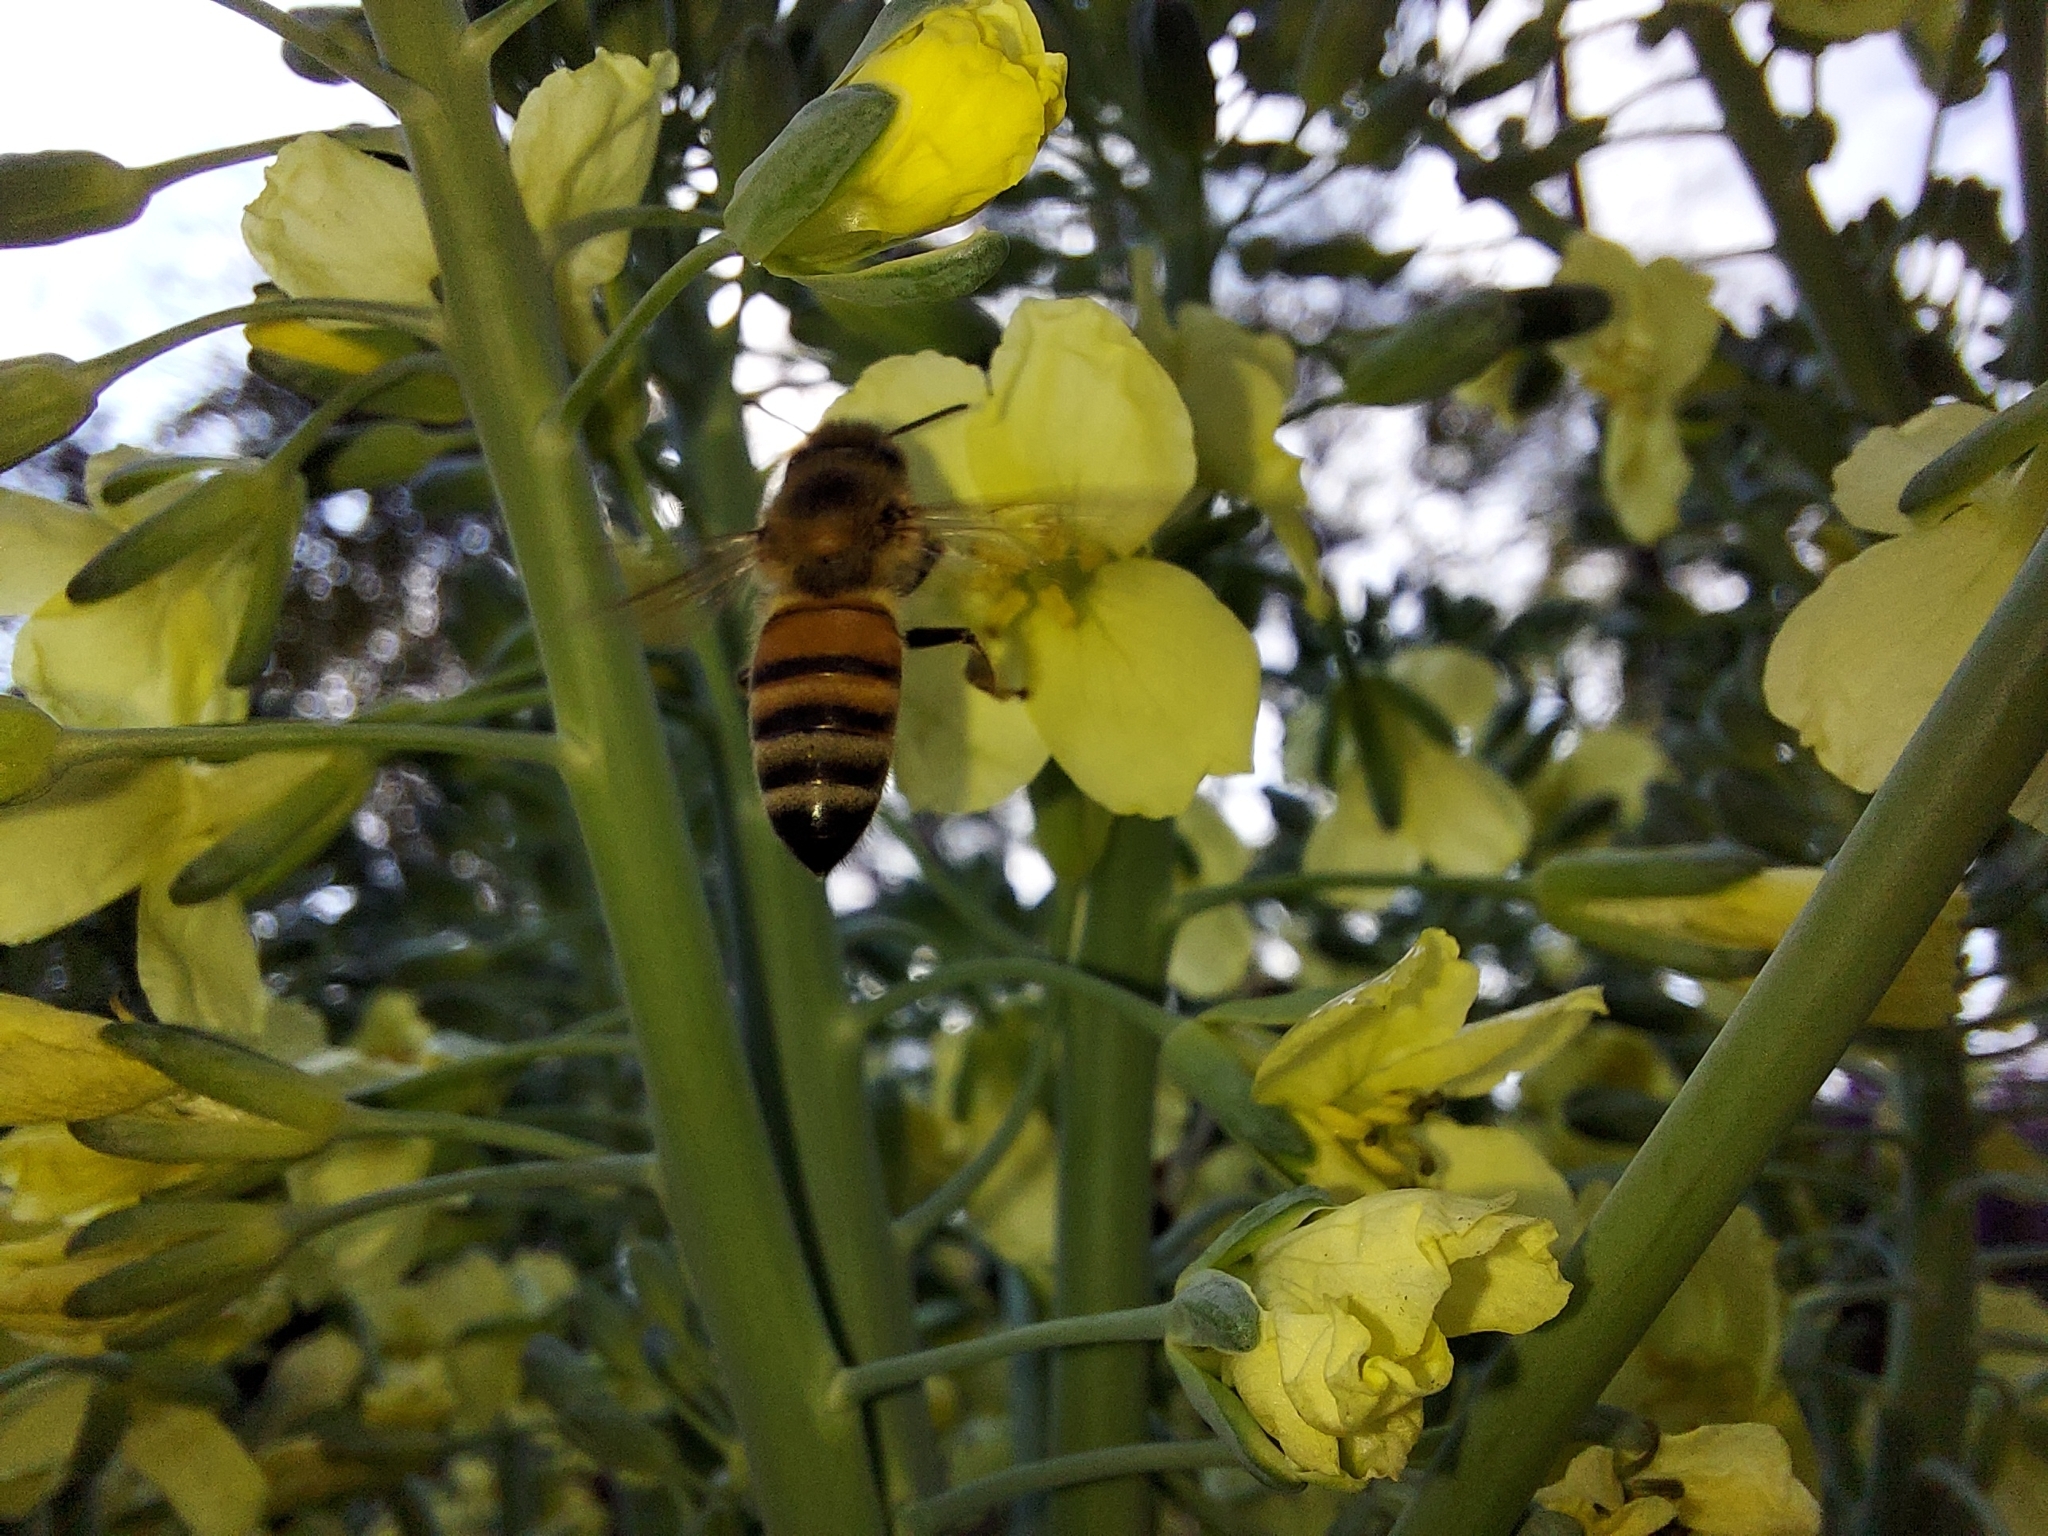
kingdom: Animalia
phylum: Arthropoda
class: Insecta
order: Hymenoptera
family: Apidae
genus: Apis
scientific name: Apis mellifera
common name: Honey bee
